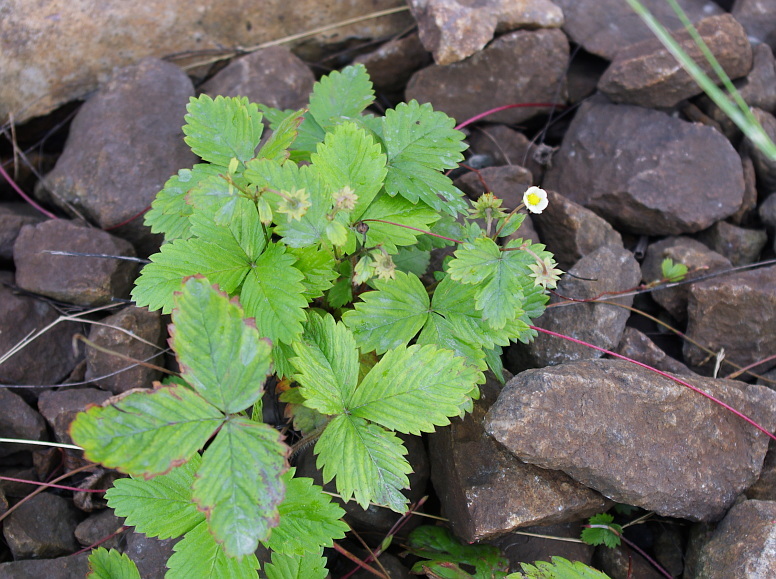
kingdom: Plantae
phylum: Tracheophyta
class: Magnoliopsida
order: Rosales
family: Rosaceae
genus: Fragaria
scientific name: Fragaria vesca
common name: Wild strawberry
